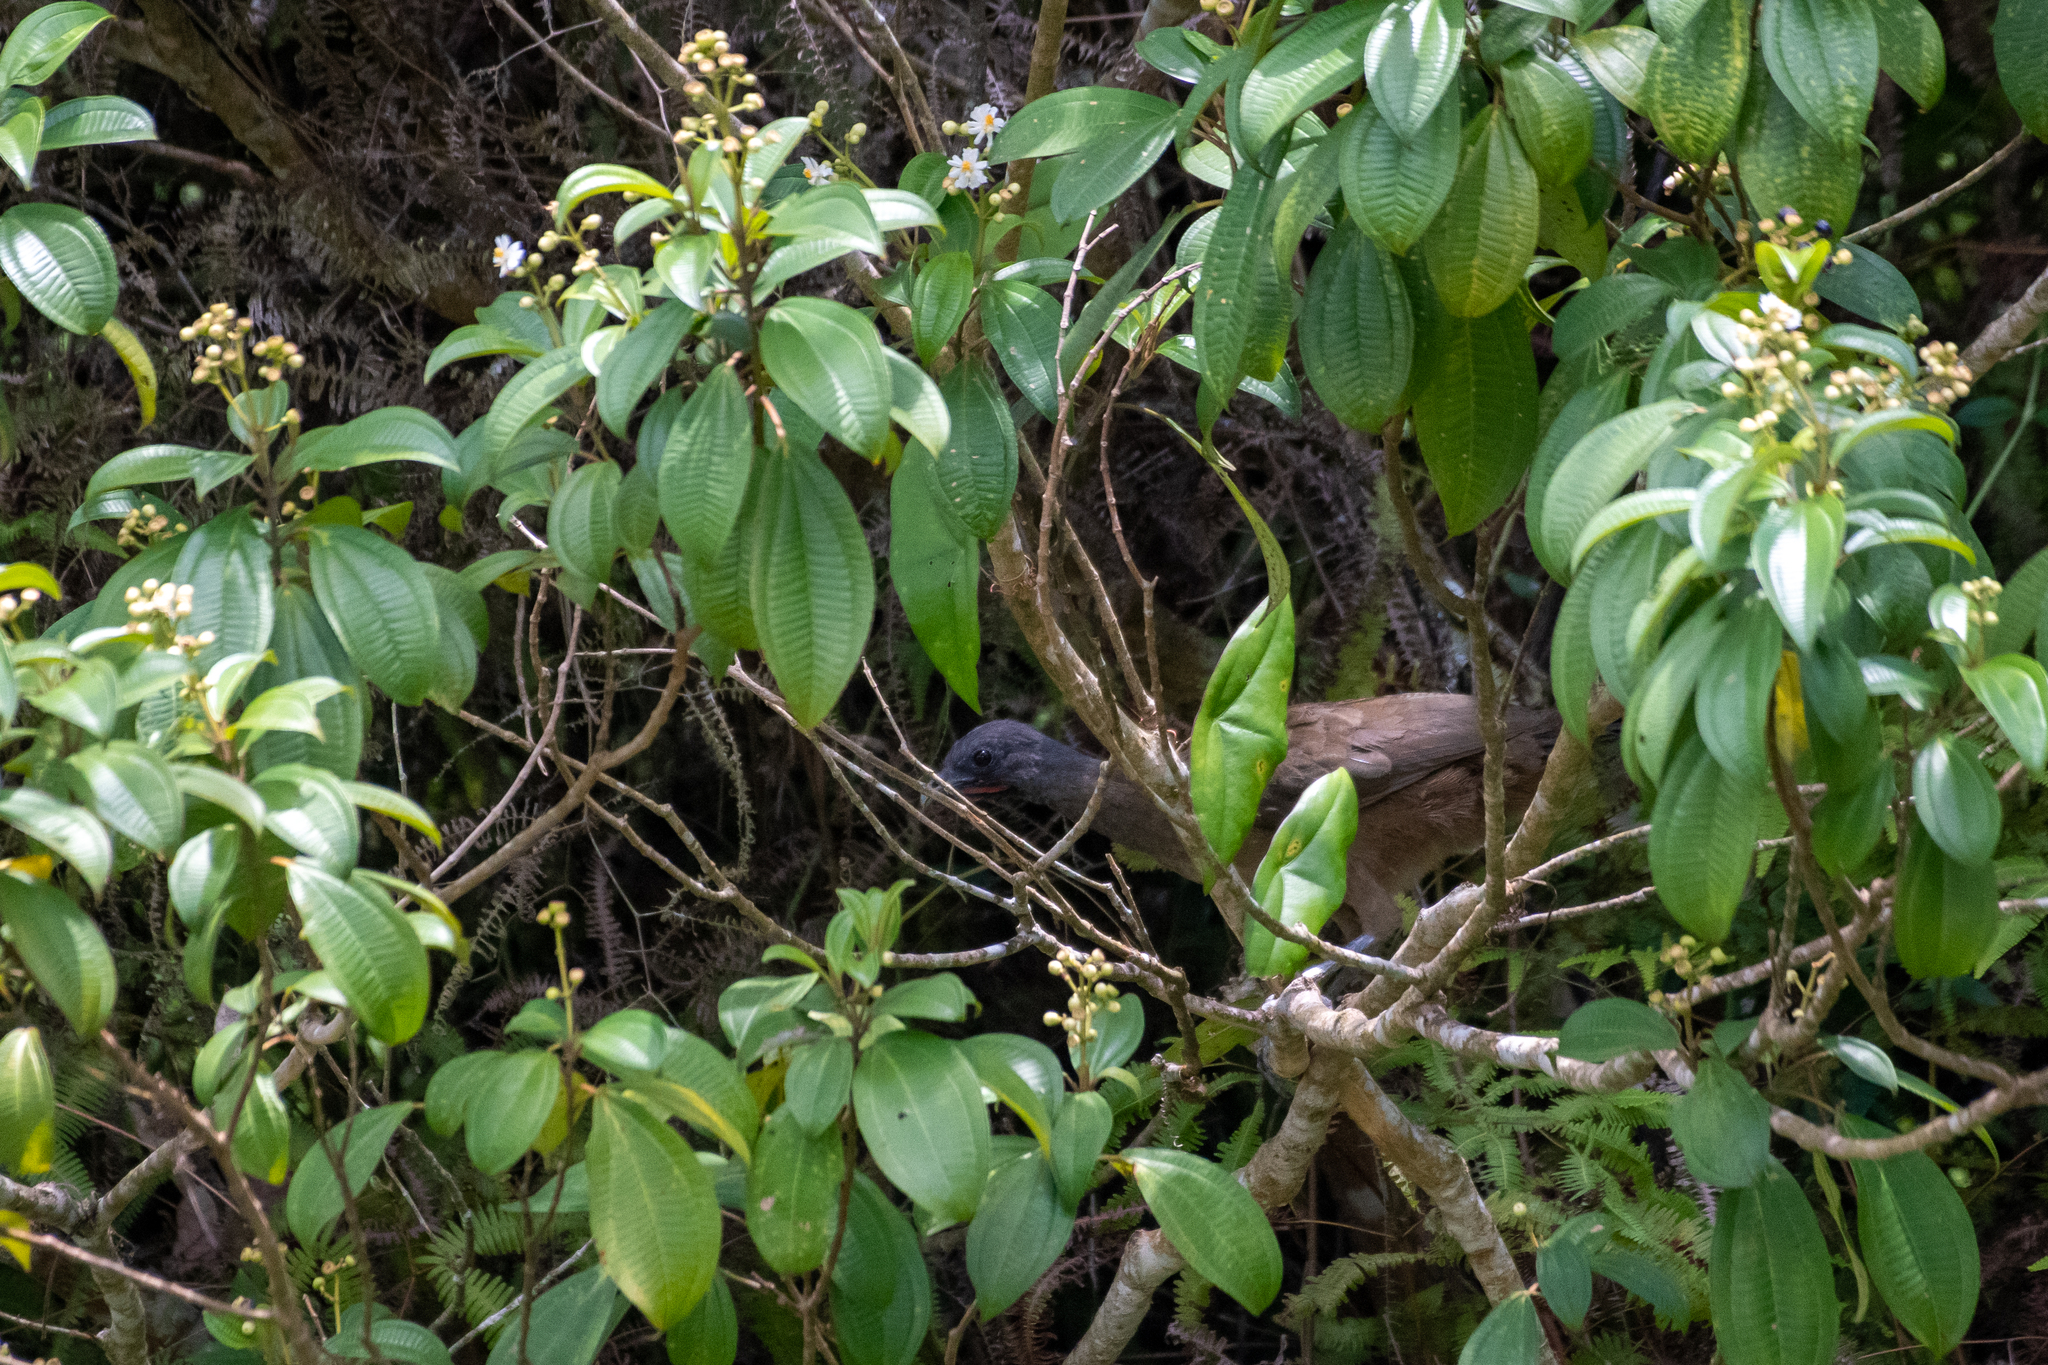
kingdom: Animalia
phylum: Chordata
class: Aves
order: Galliformes
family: Cracidae
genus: Ortalis
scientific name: Ortalis vetula
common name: Plain chachalaca
